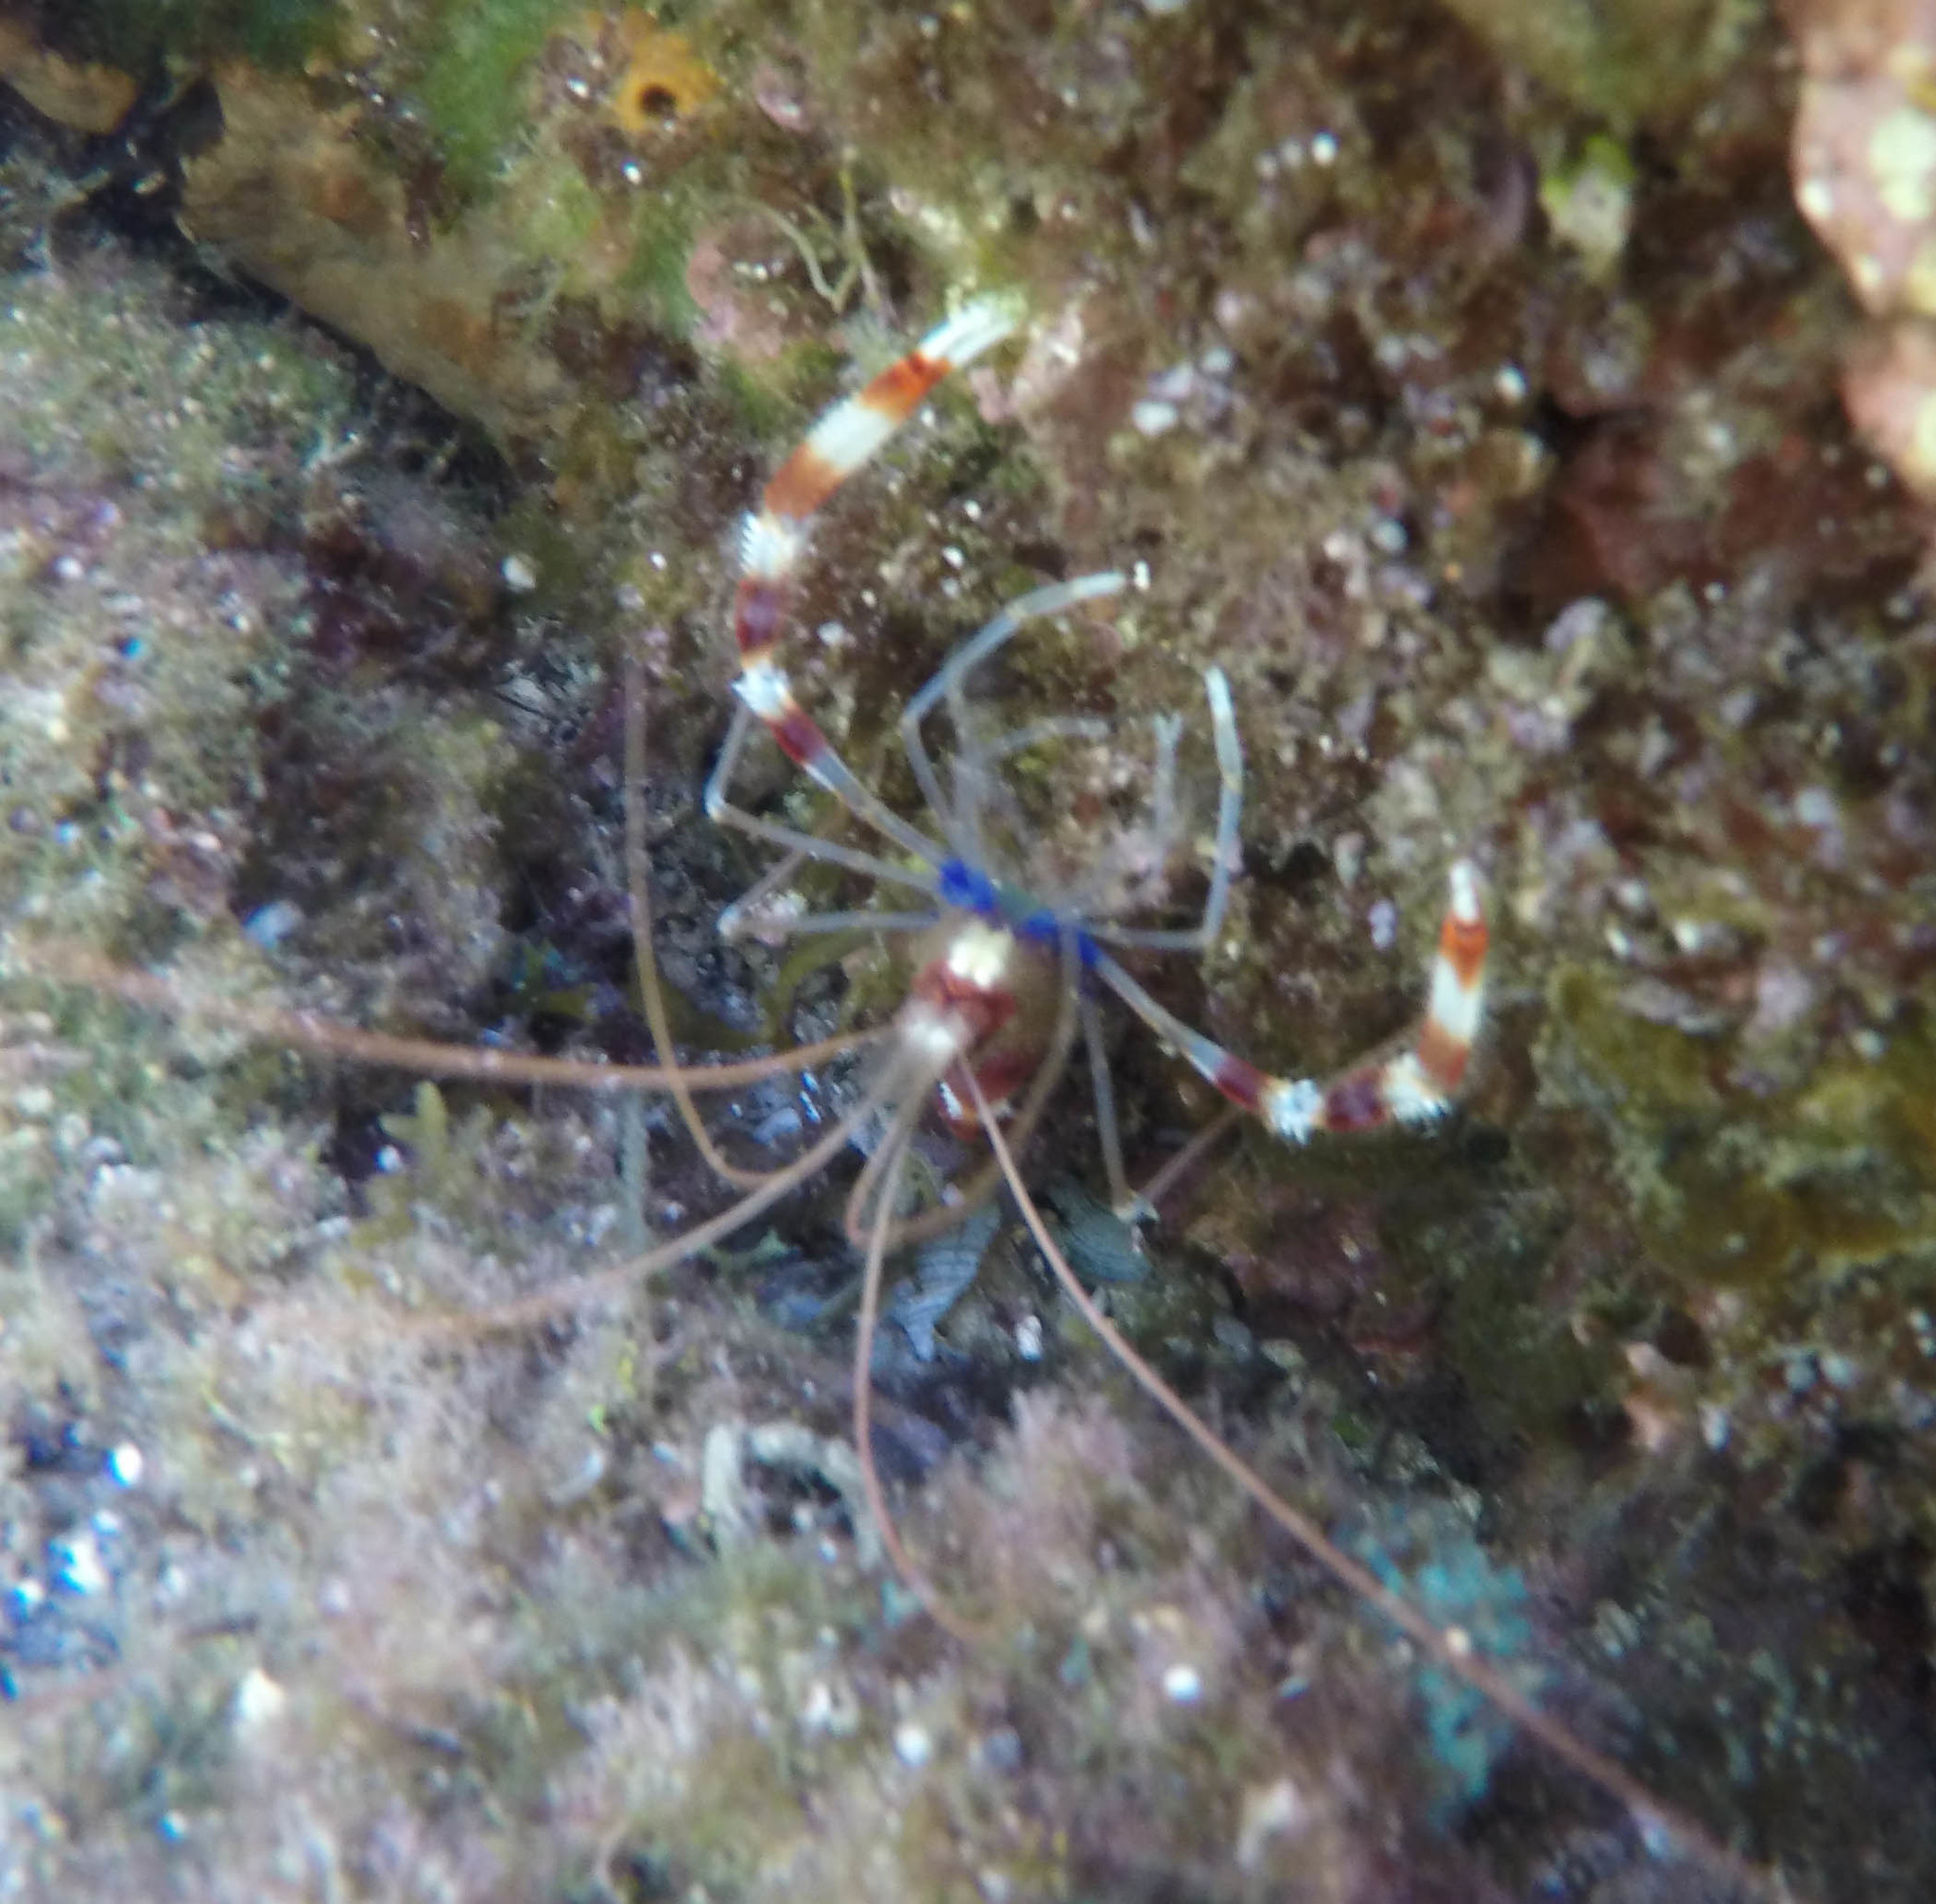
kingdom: Animalia
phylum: Arthropoda
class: Malacostraca
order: Decapoda
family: Stenopodidae
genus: Stenopus
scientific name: Stenopus hispidus
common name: Banded coral shrimp
